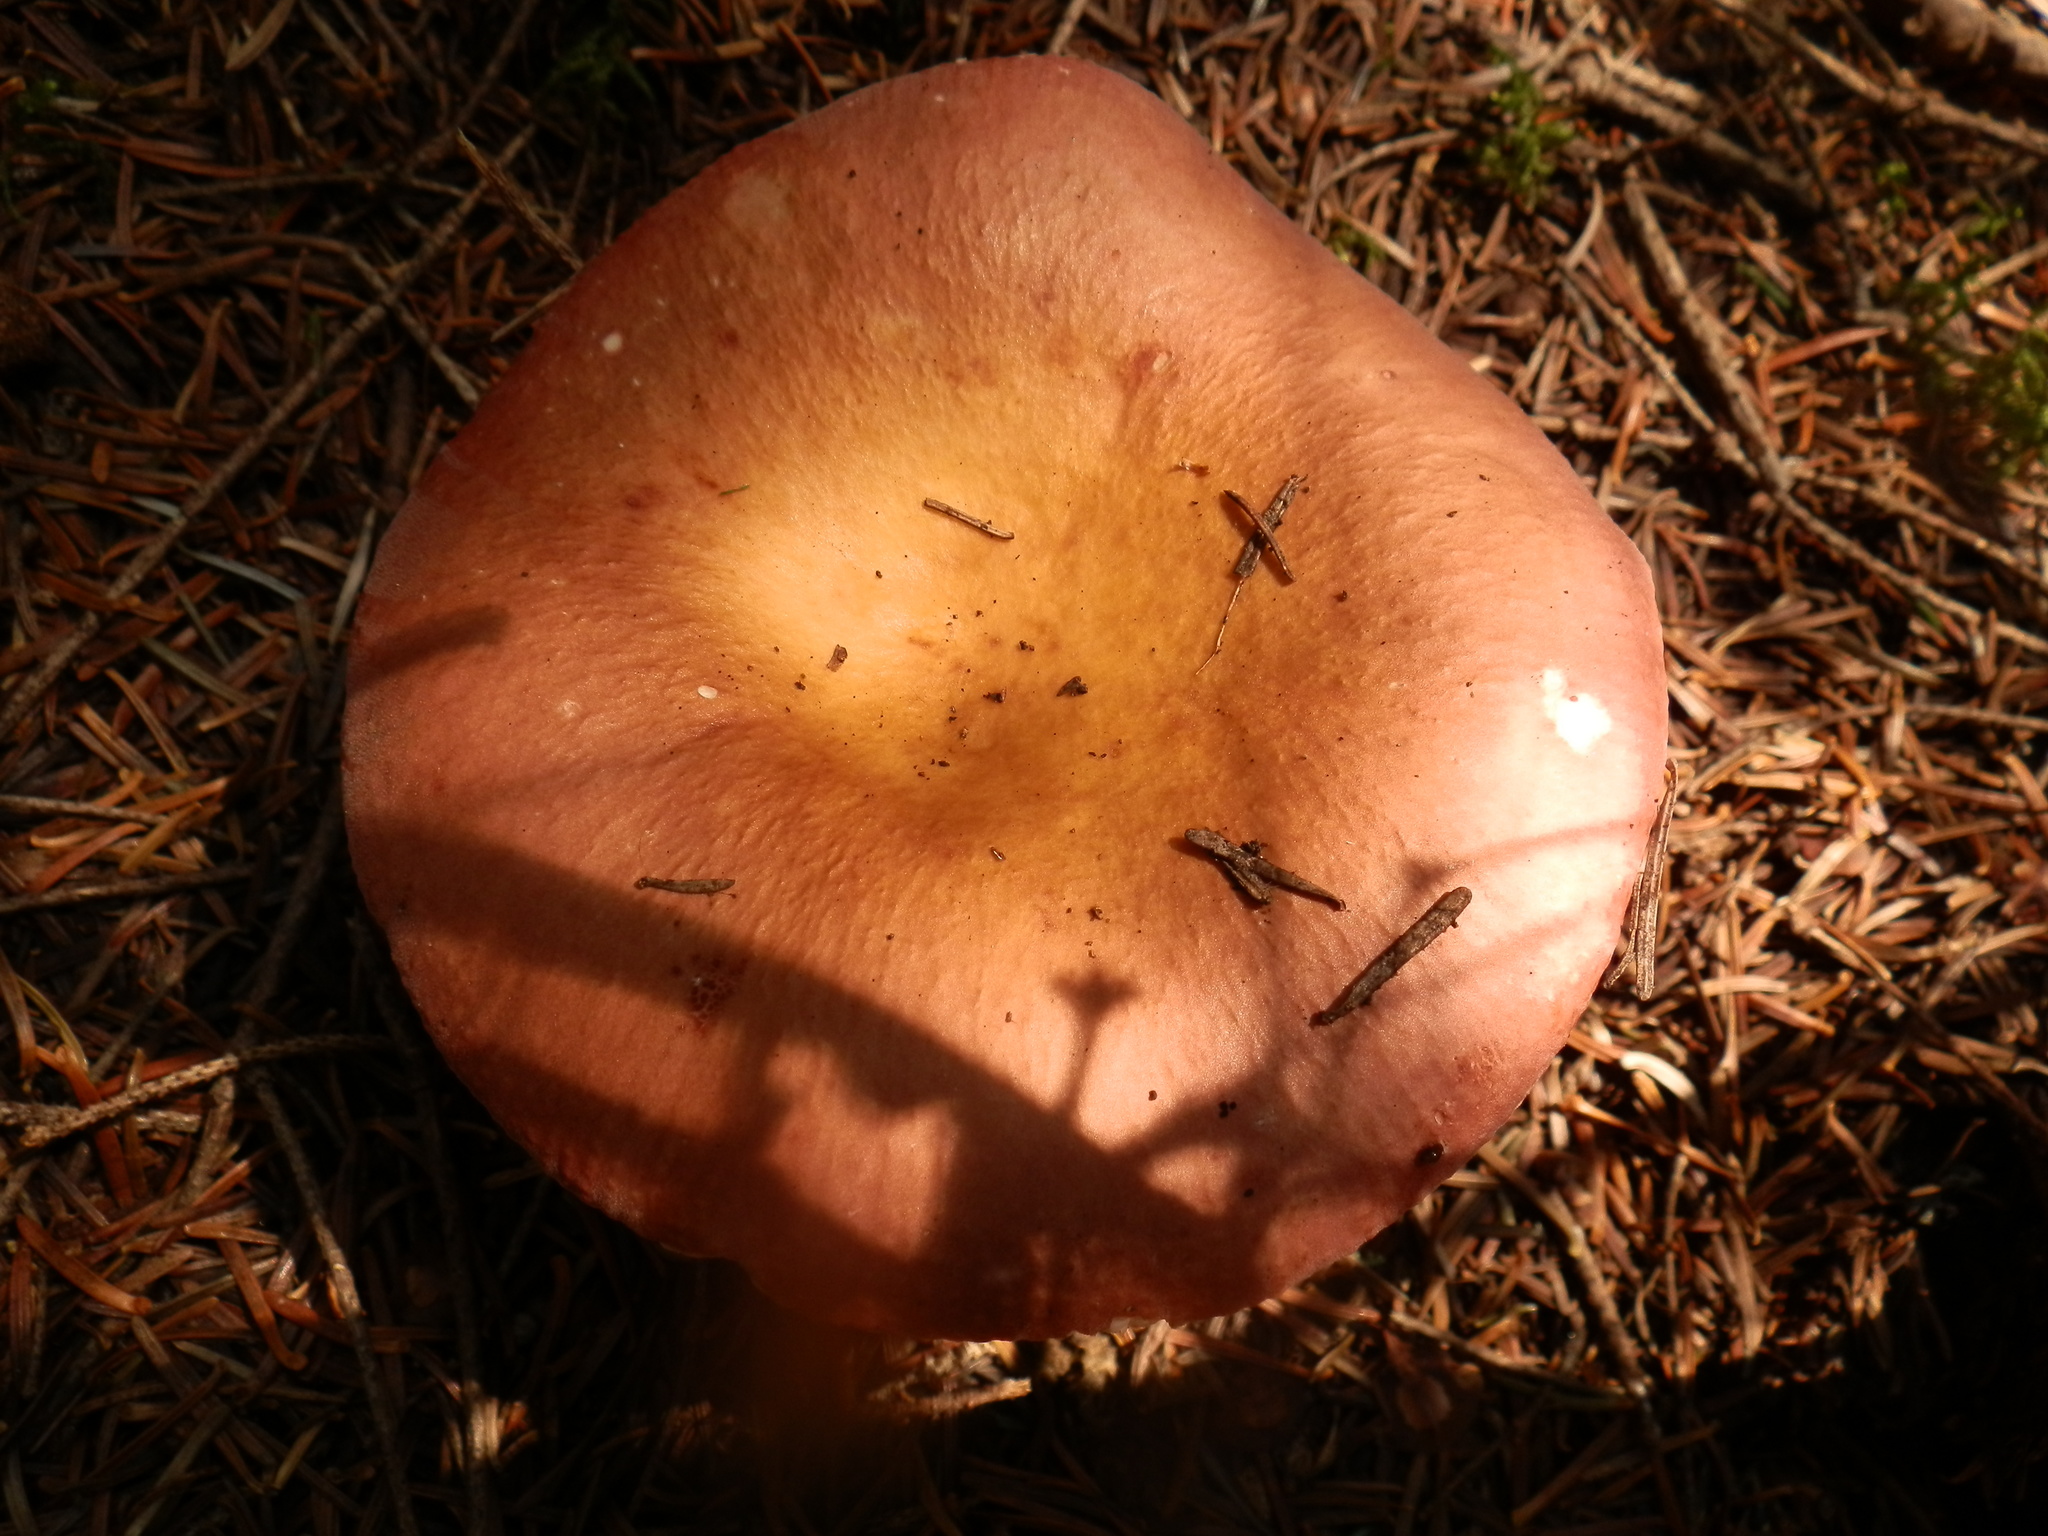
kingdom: Fungi
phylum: Basidiomycota
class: Agaricomycetes
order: Russulales
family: Russulaceae
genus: Russula
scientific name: Russula paludosa
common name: Hintapink
